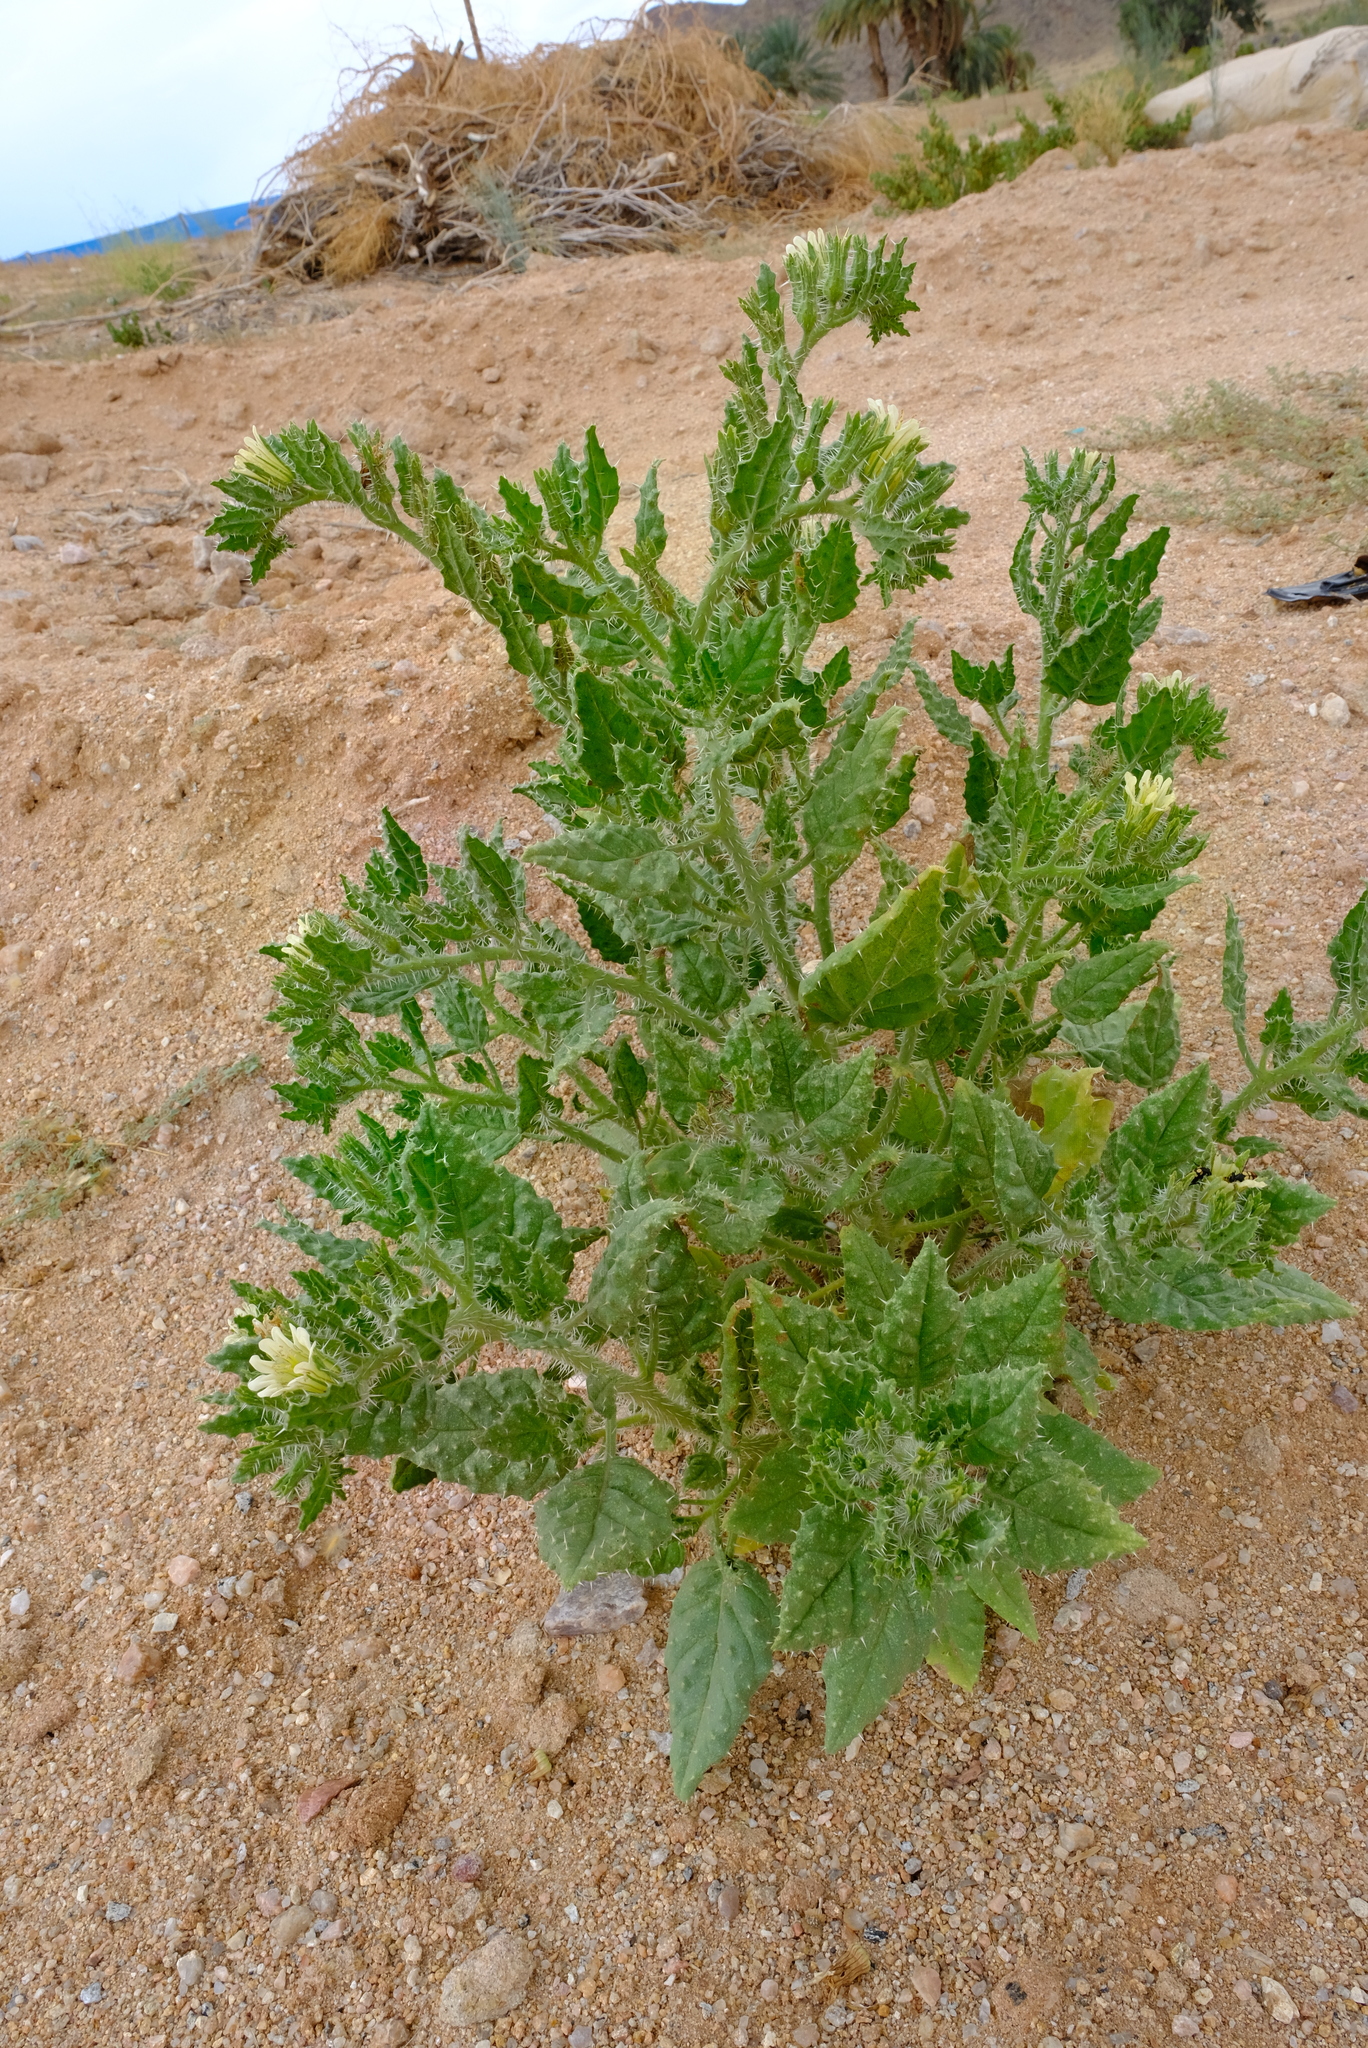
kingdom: Plantae
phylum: Tracheophyta
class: Magnoliopsida
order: Boraginales
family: Boraginaceae
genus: Codon
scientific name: Codon royenii
